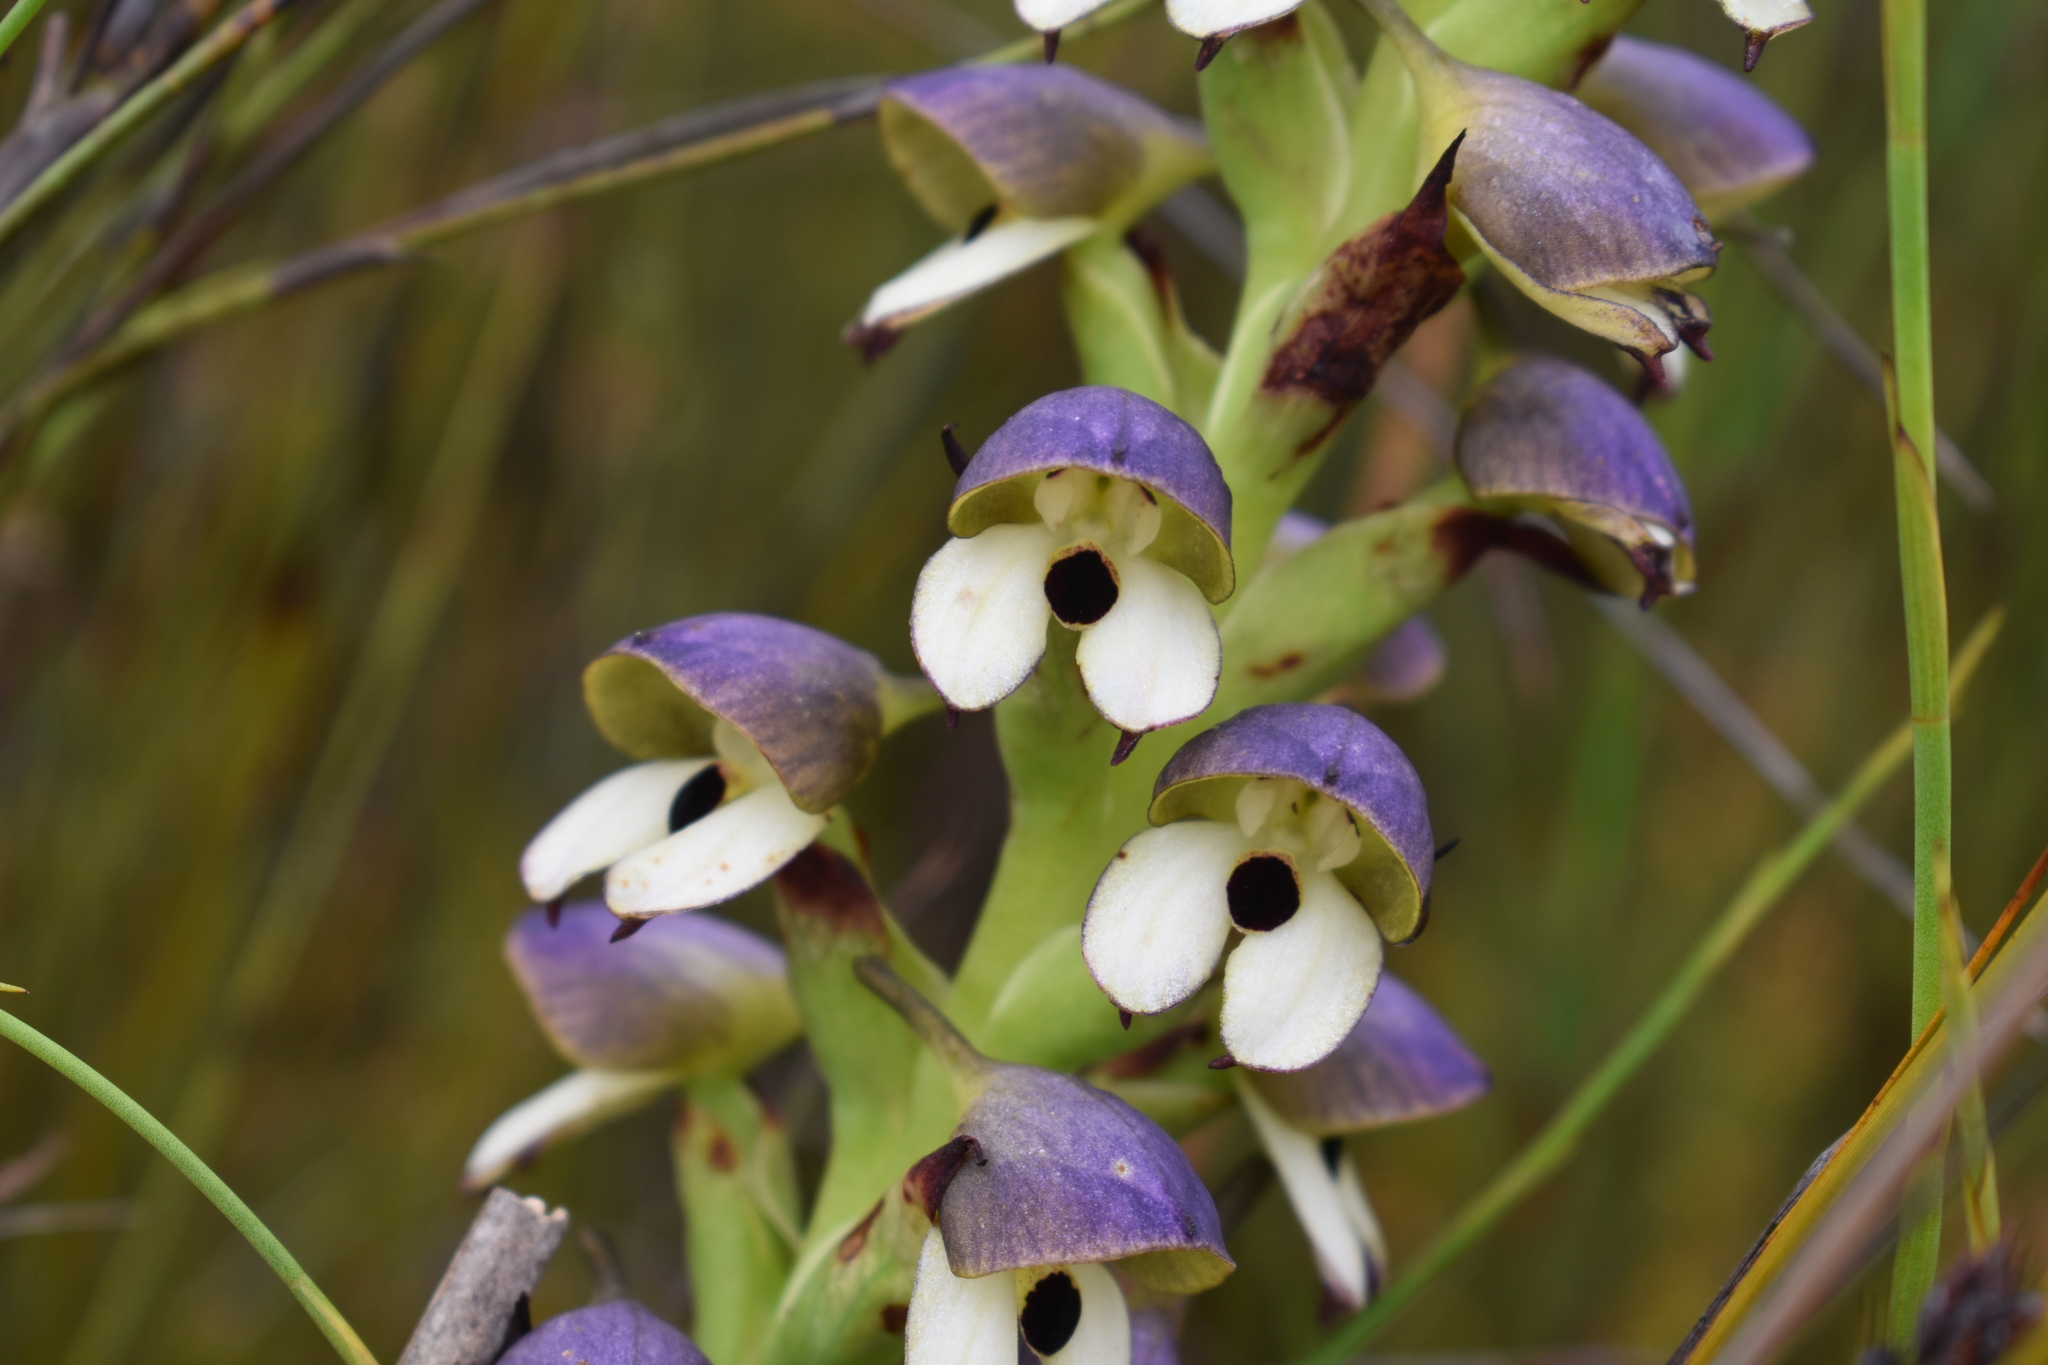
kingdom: Plantae
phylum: Tracheophyta
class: Liliopsida
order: Asparagales
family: Orchidaceae
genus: Disa
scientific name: Disa cornuta
